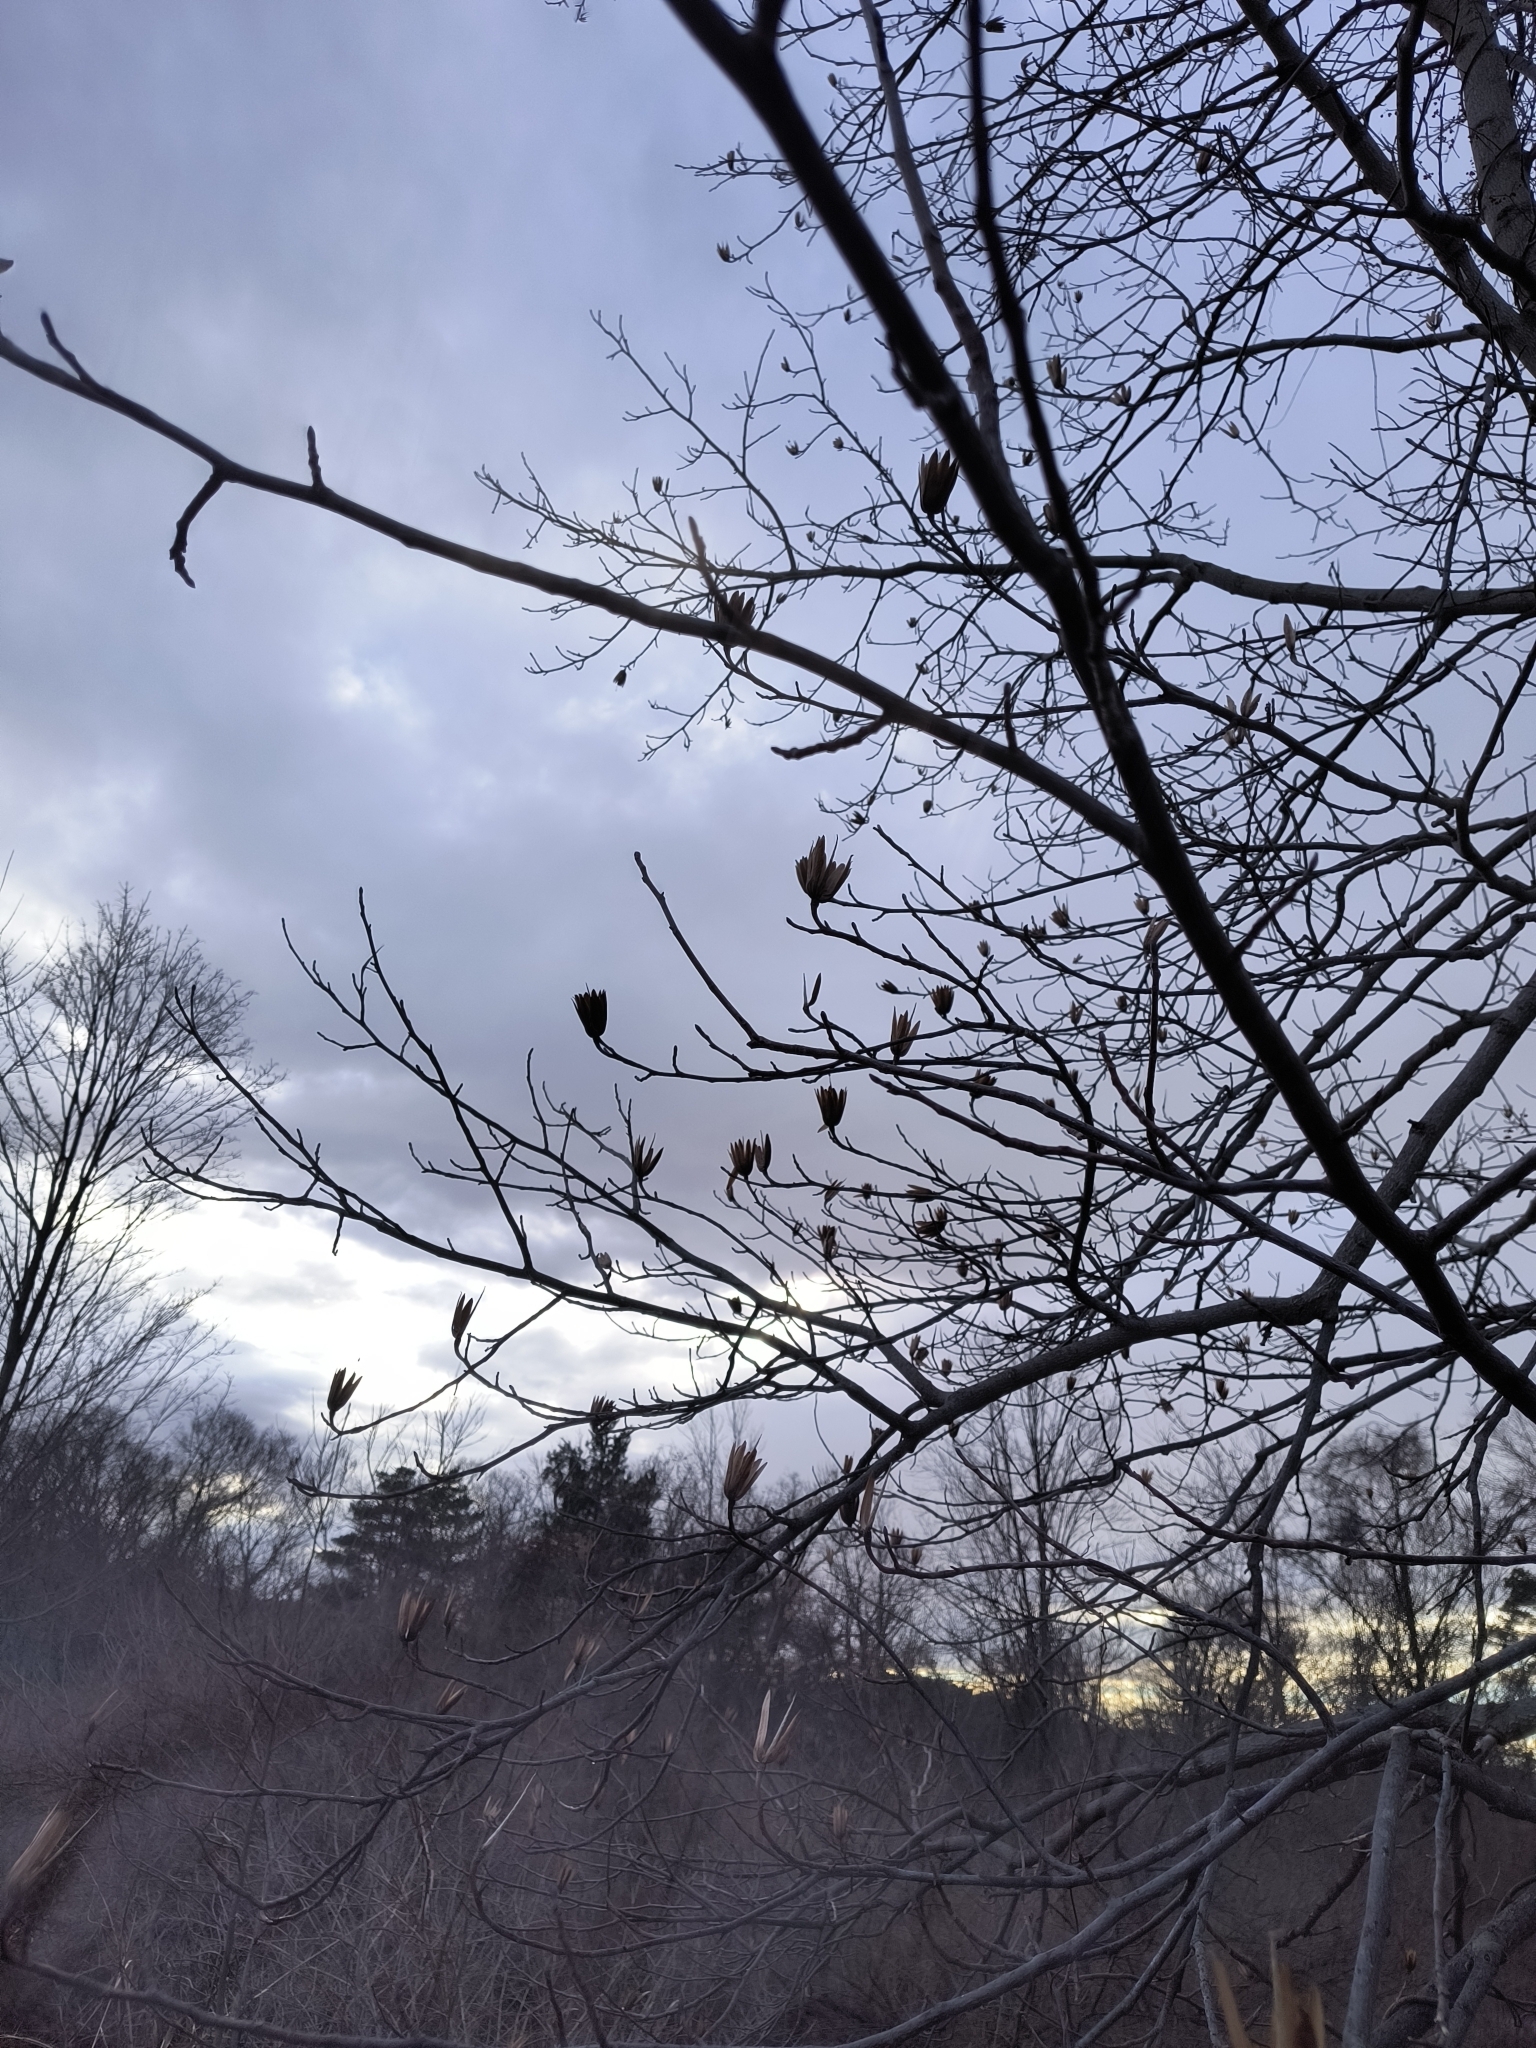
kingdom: Plantae
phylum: Tracheophyta
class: Magnoliopsida
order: Magnoliales
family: Magnoliaceae
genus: Liriodendron
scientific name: Liriodendron tulipifera
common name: Tulip tree
